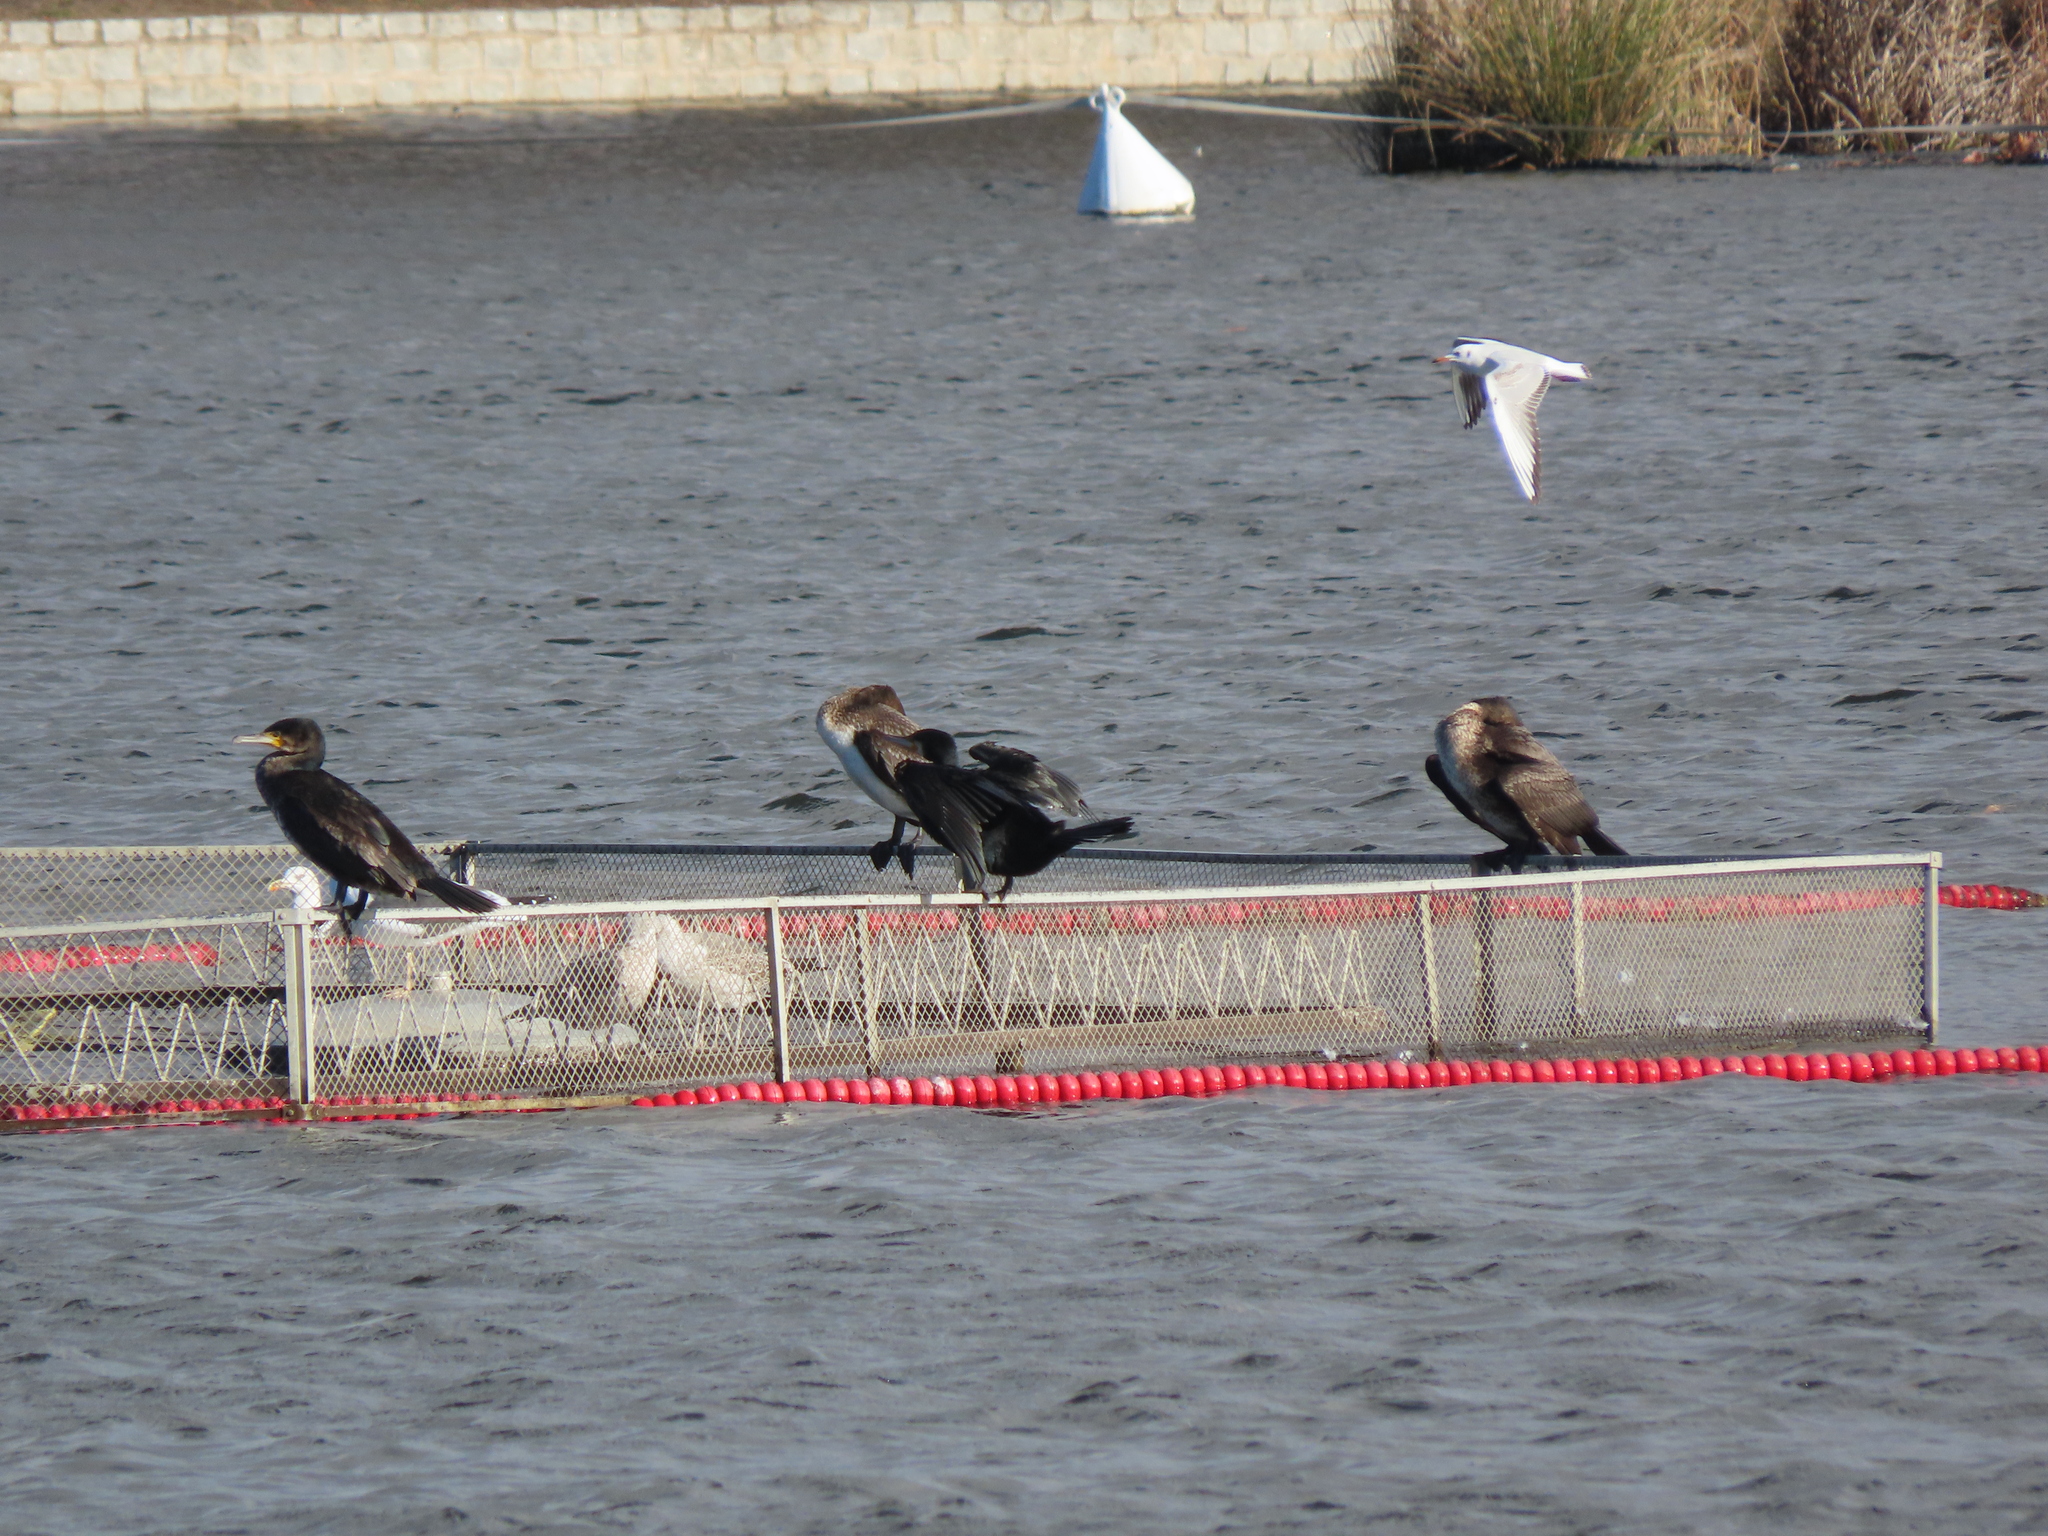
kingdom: Animalia
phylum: Chordata
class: Aves
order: Suliformes
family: Phalacrocoracidae
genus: Phalacrocorax
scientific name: Phalacrocorax carbo
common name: Great cormorant
